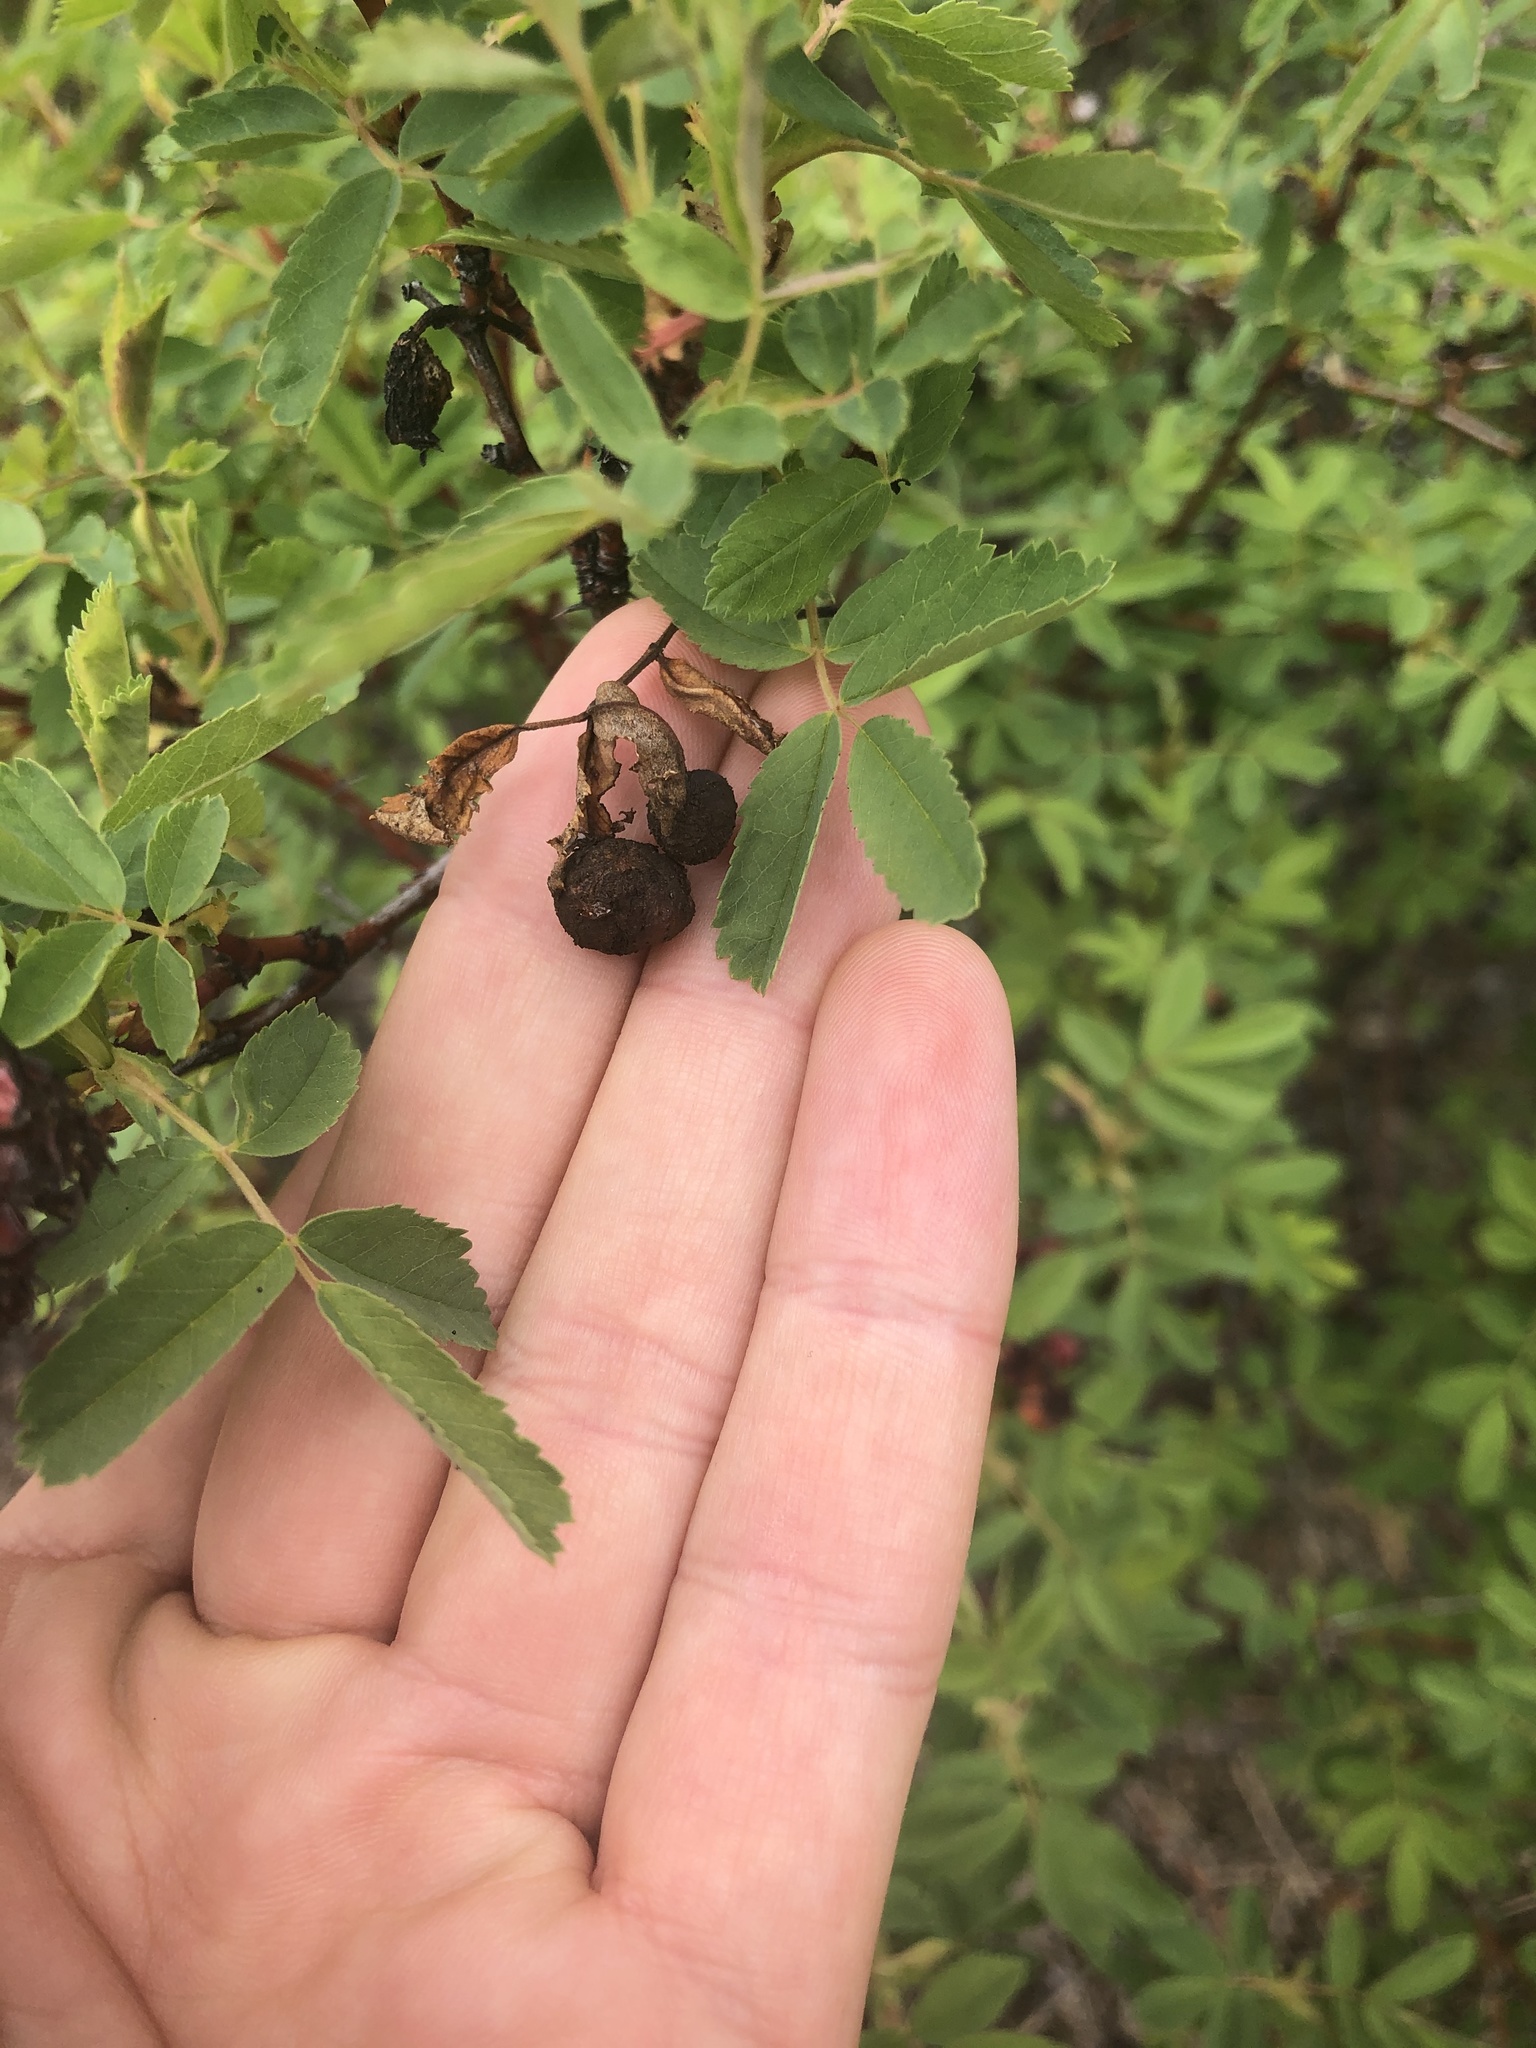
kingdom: Animalia
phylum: Arthropoda
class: Insecta
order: Hymenoptera
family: Cynipidae
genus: Diplolepis
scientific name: Diplolepis variabilis
